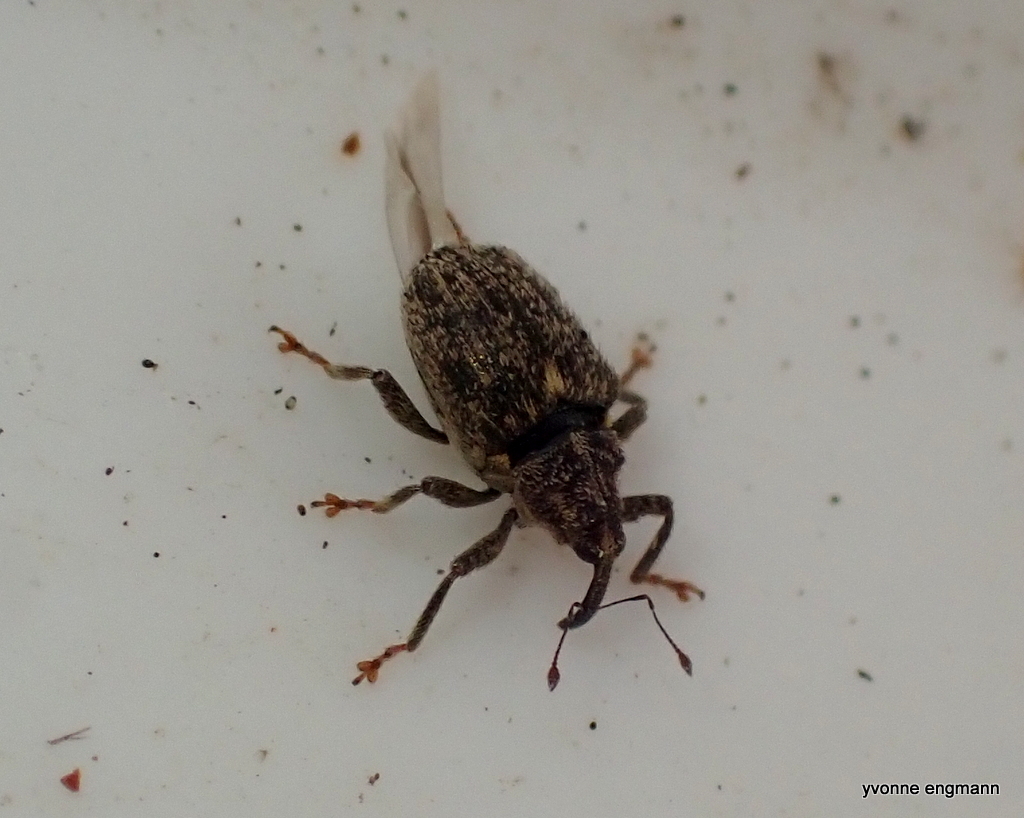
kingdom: Animalia
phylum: Arthropoda
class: Insecta
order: Coleoptera
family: Curculionidae
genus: Ceutorhynchus
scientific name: Ceutorhynchus pallidactylus
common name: Cabbage stem weavil
